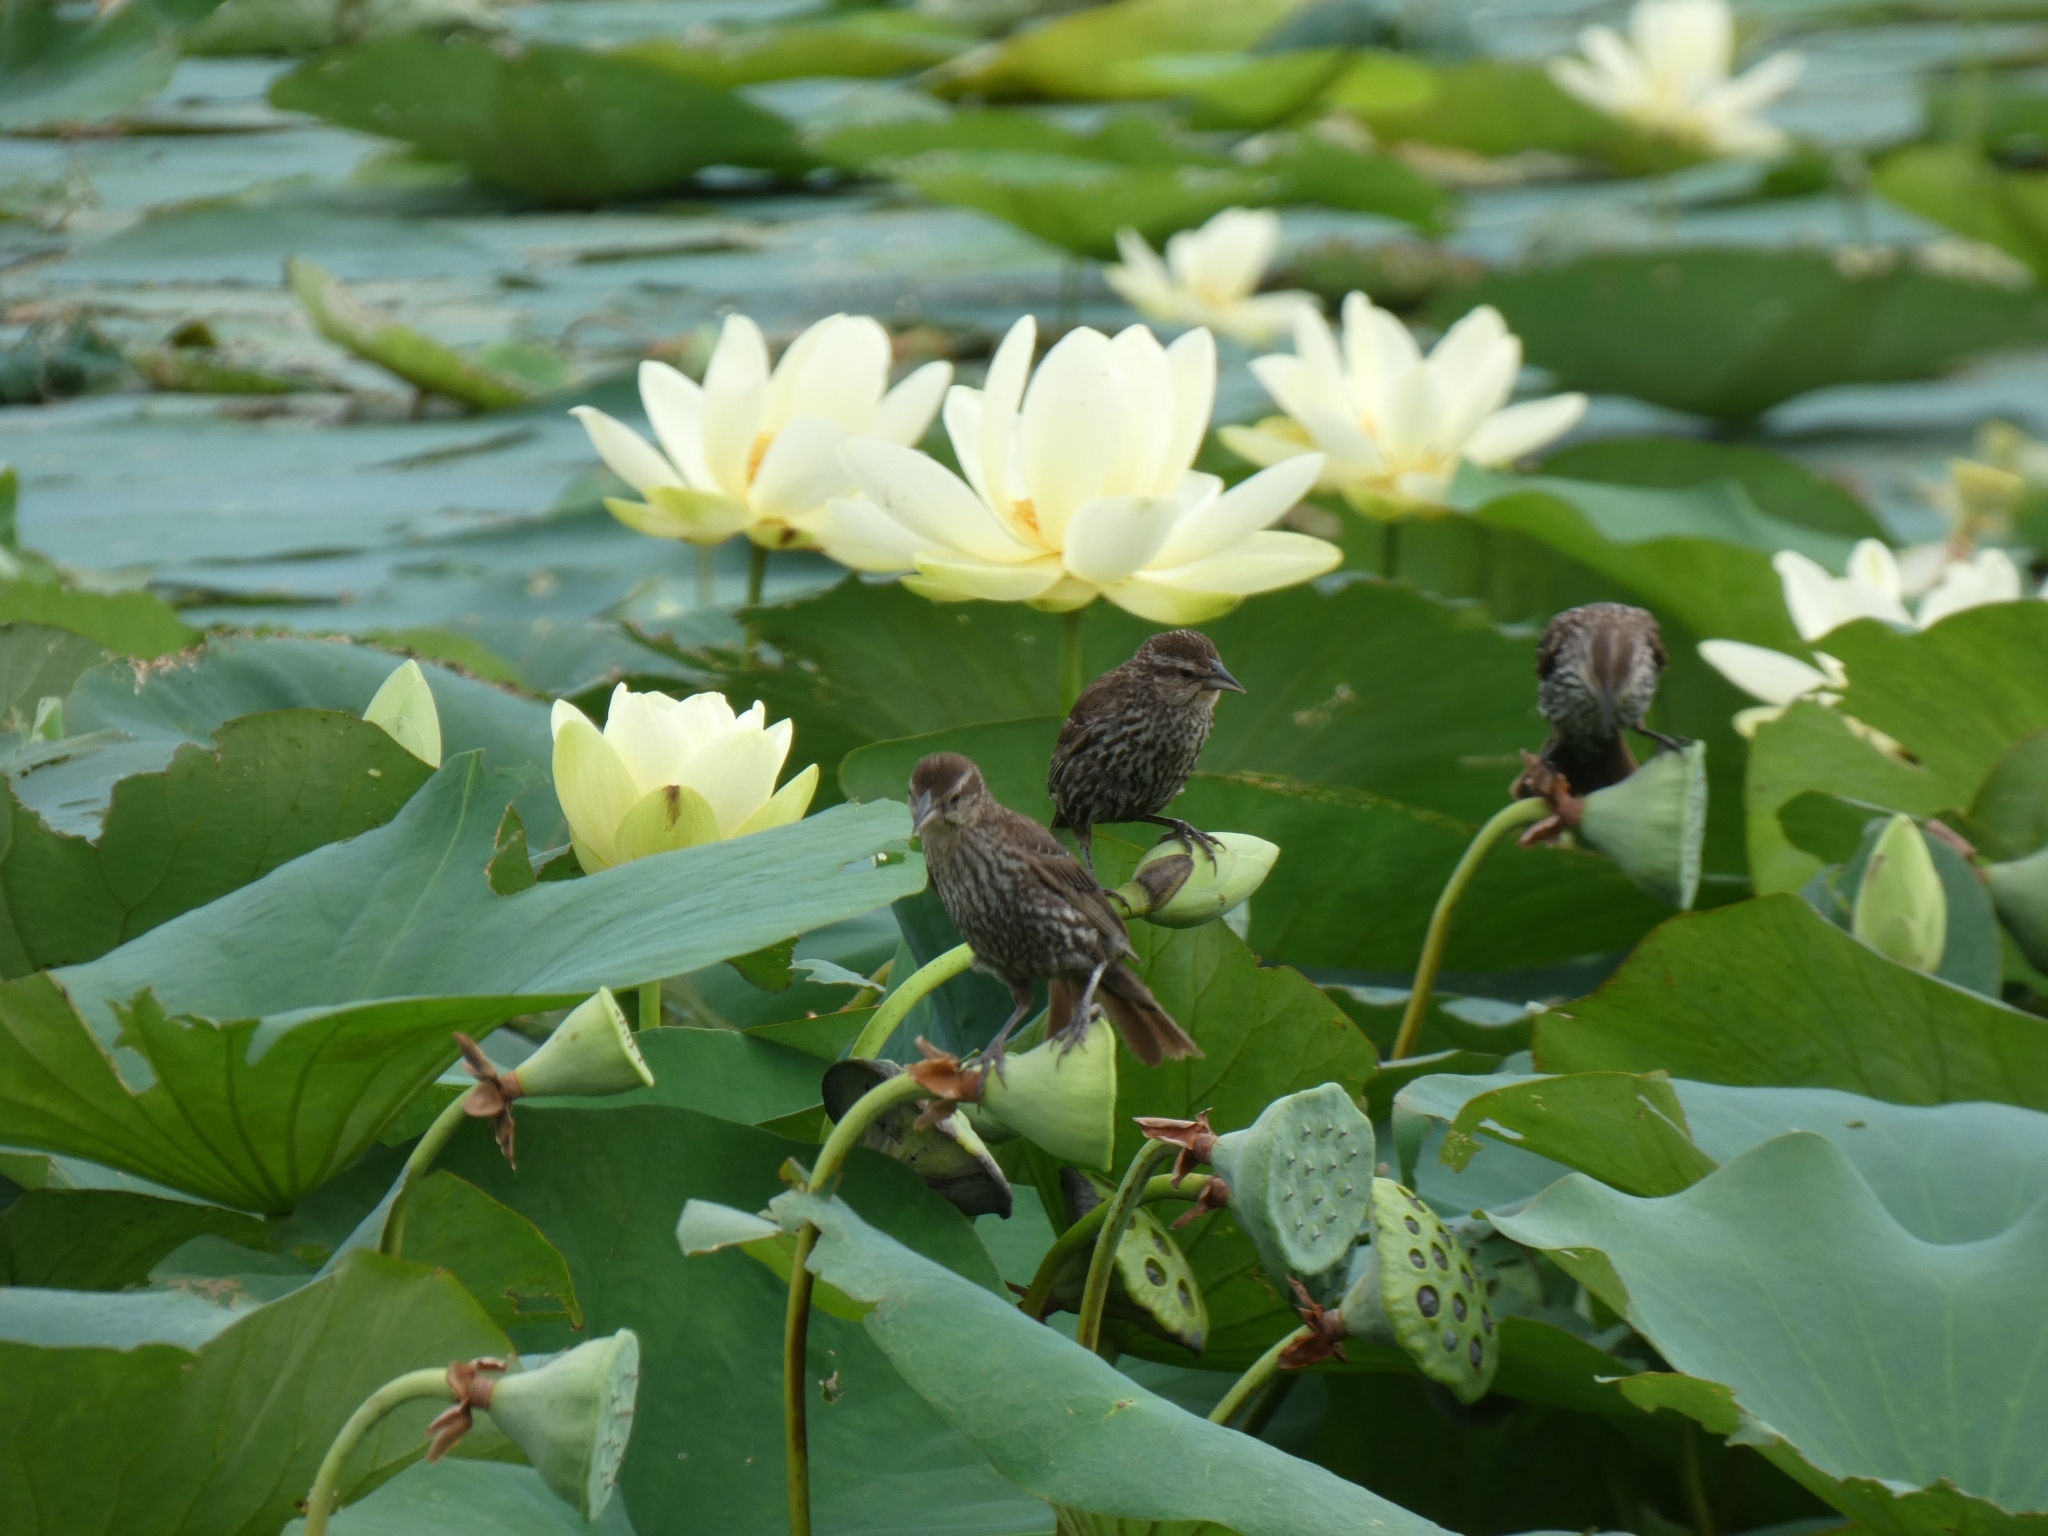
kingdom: Animalia
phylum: Chordata
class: Aves
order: Passeriformes
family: Icteridae
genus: Agelaius
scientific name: Agelaius phoeniceus
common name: Red-winged blackbird
